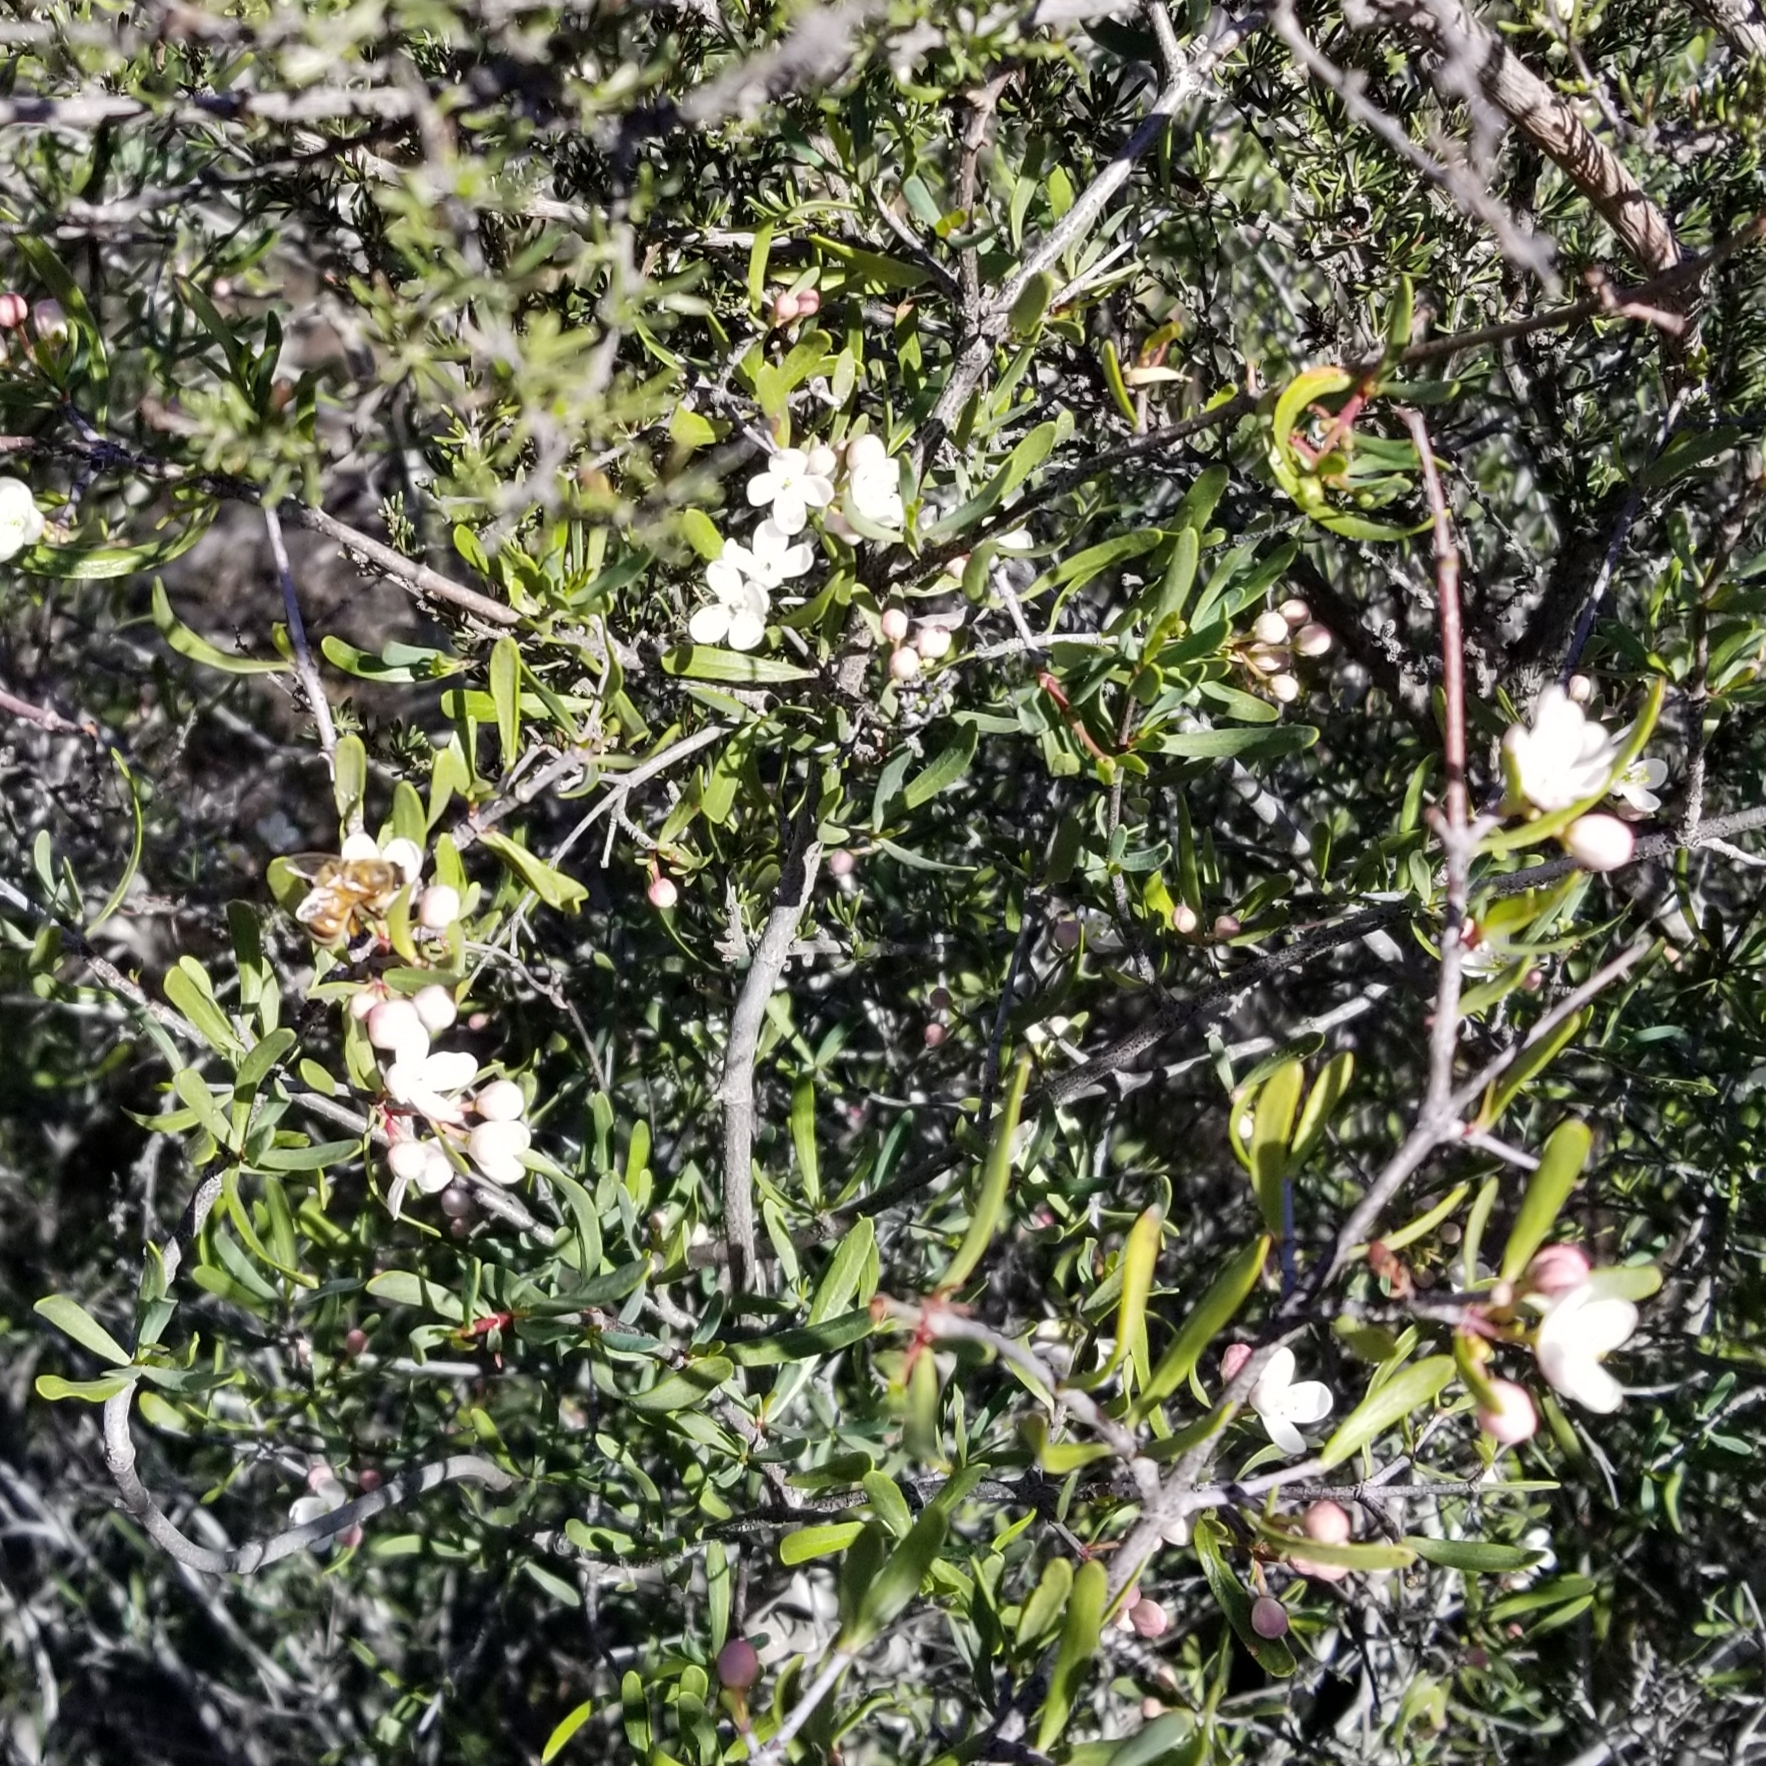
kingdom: Plantae
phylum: Tracheophyta
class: Magnoliopsida
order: Sapindales
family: Rutaceae
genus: Cneoridium
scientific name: Cneoridium dumosum
